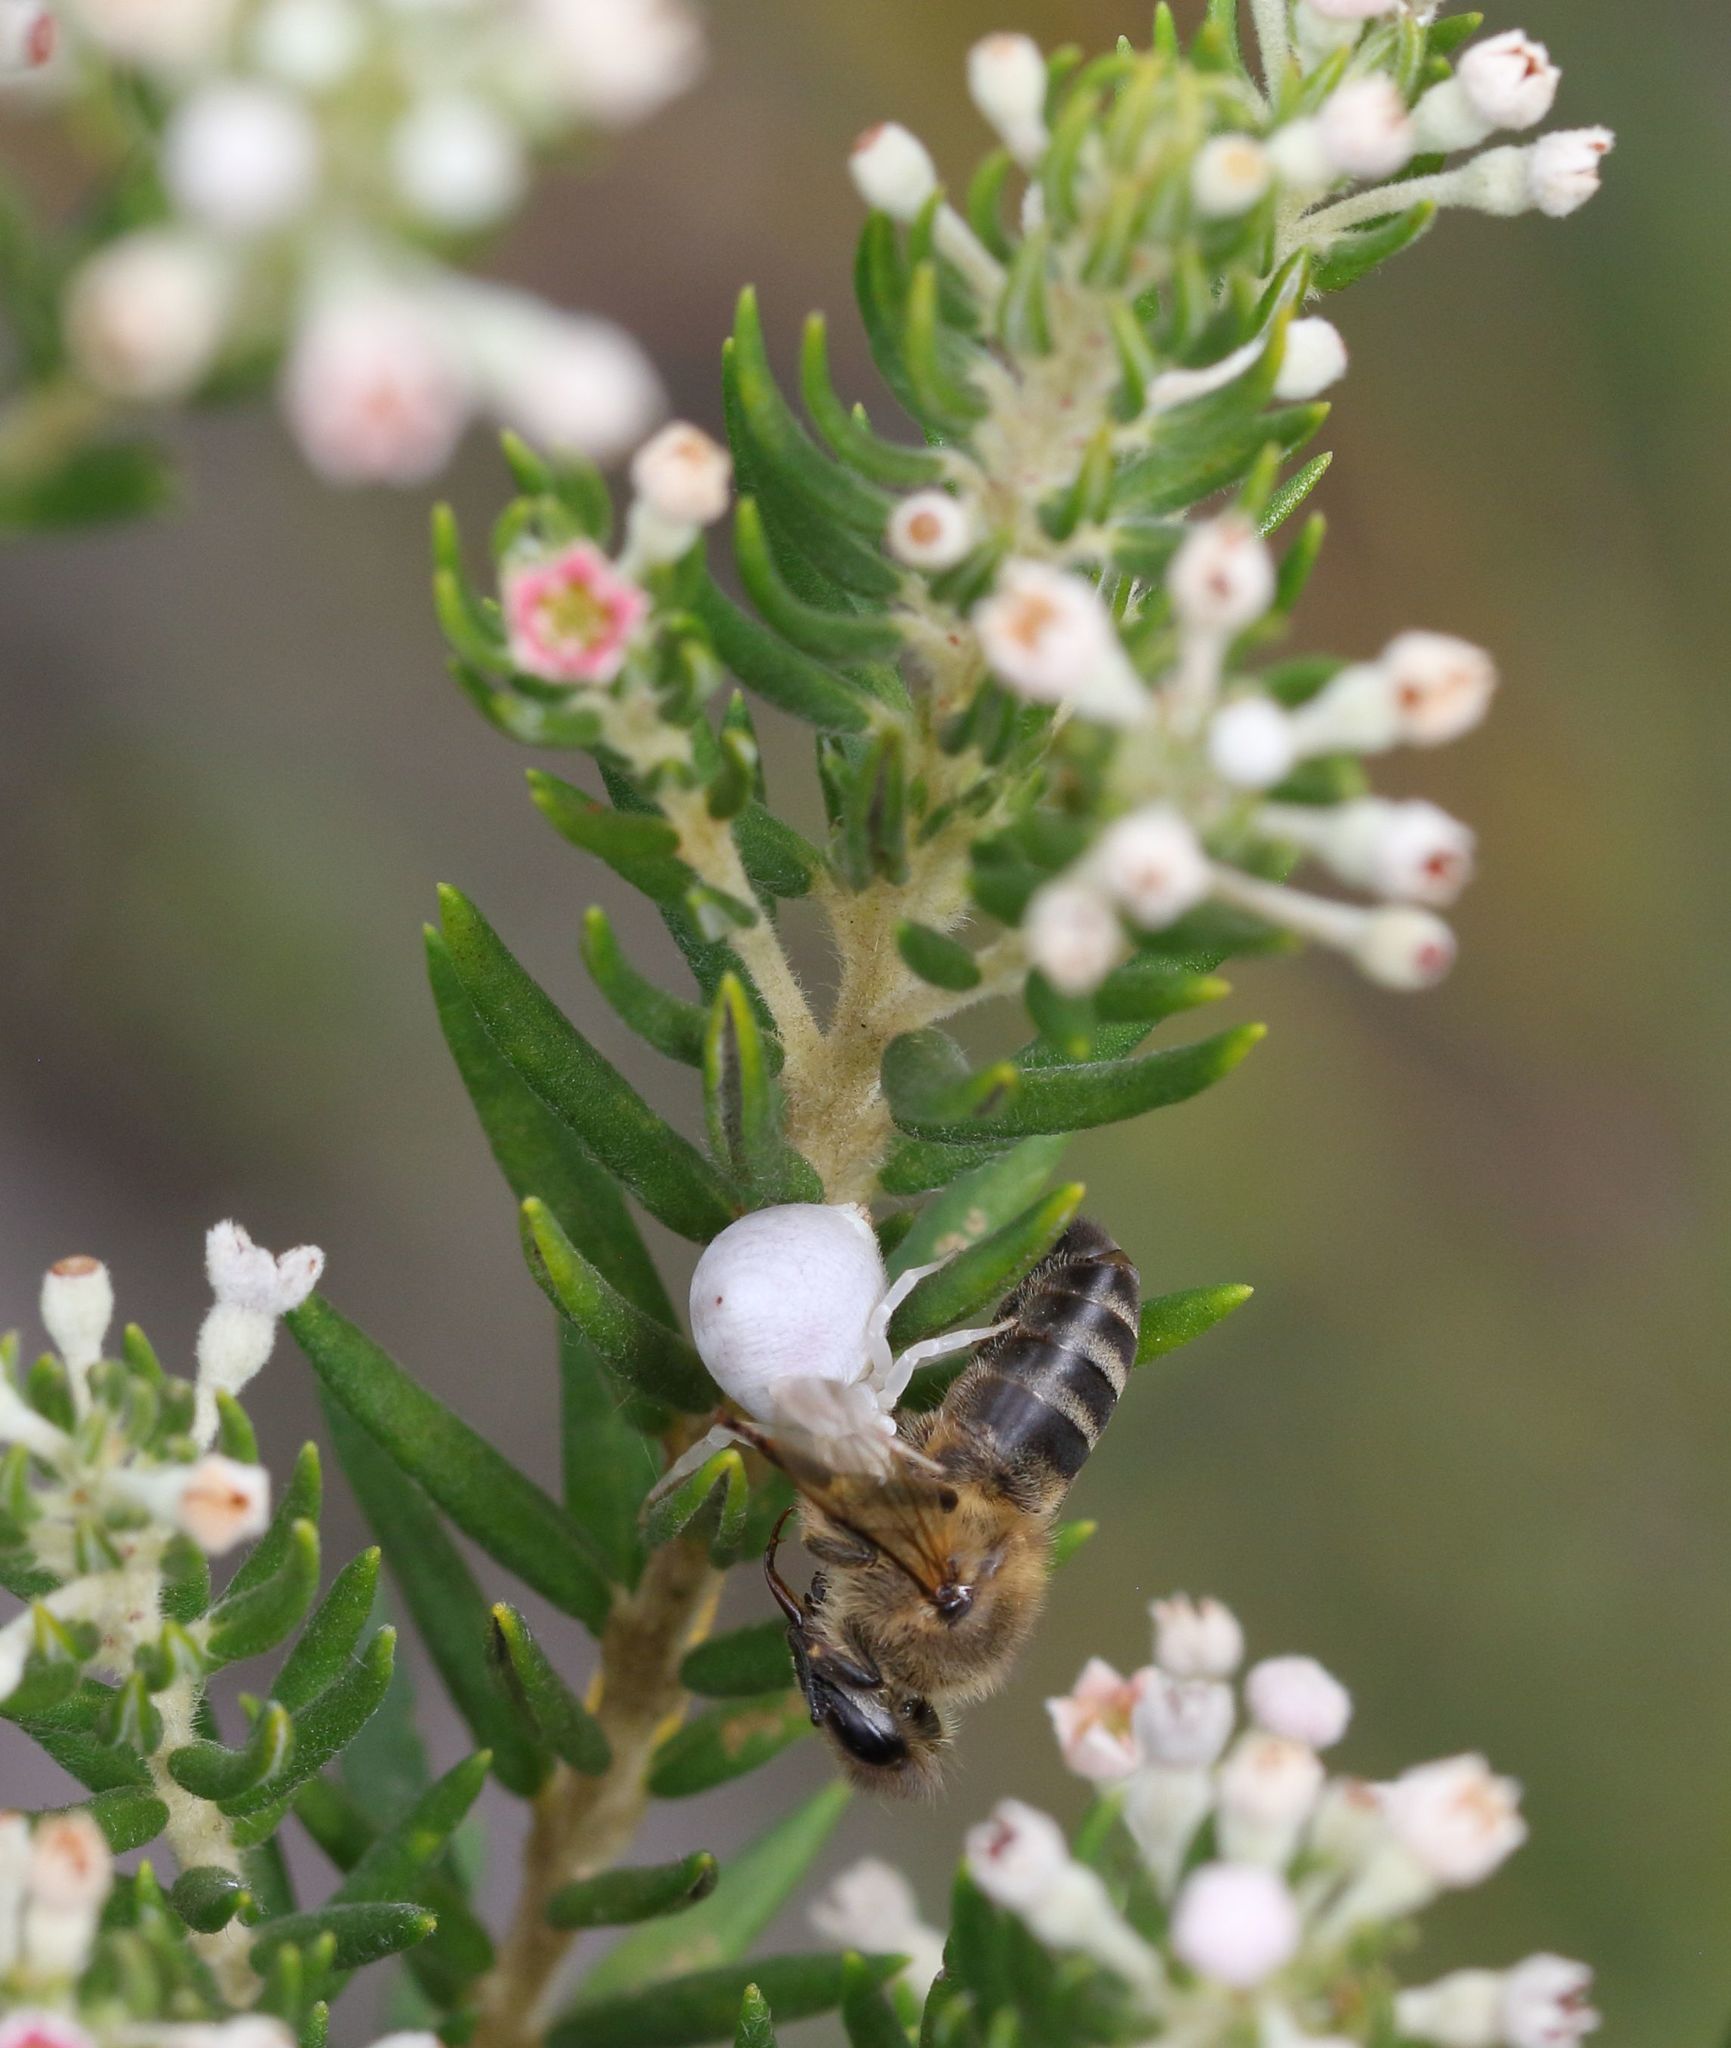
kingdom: Animalia
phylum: Arthropoda
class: Insecta
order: Hymenoptera
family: Apidae
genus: Apis
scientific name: Apis mellifera
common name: Honey bee
